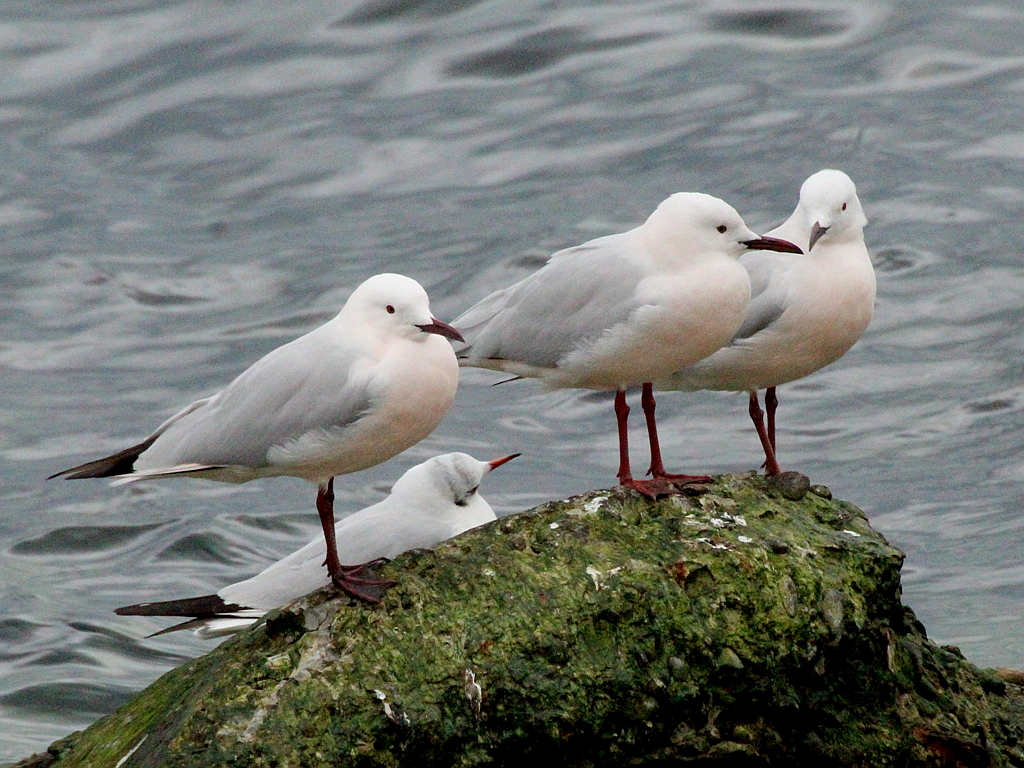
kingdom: Animalia
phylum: Chordata
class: Aves
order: Charadriiformes
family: Laridae
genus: Chroicocephalus
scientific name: Chroicocephalus genei
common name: Slender-billed gull
